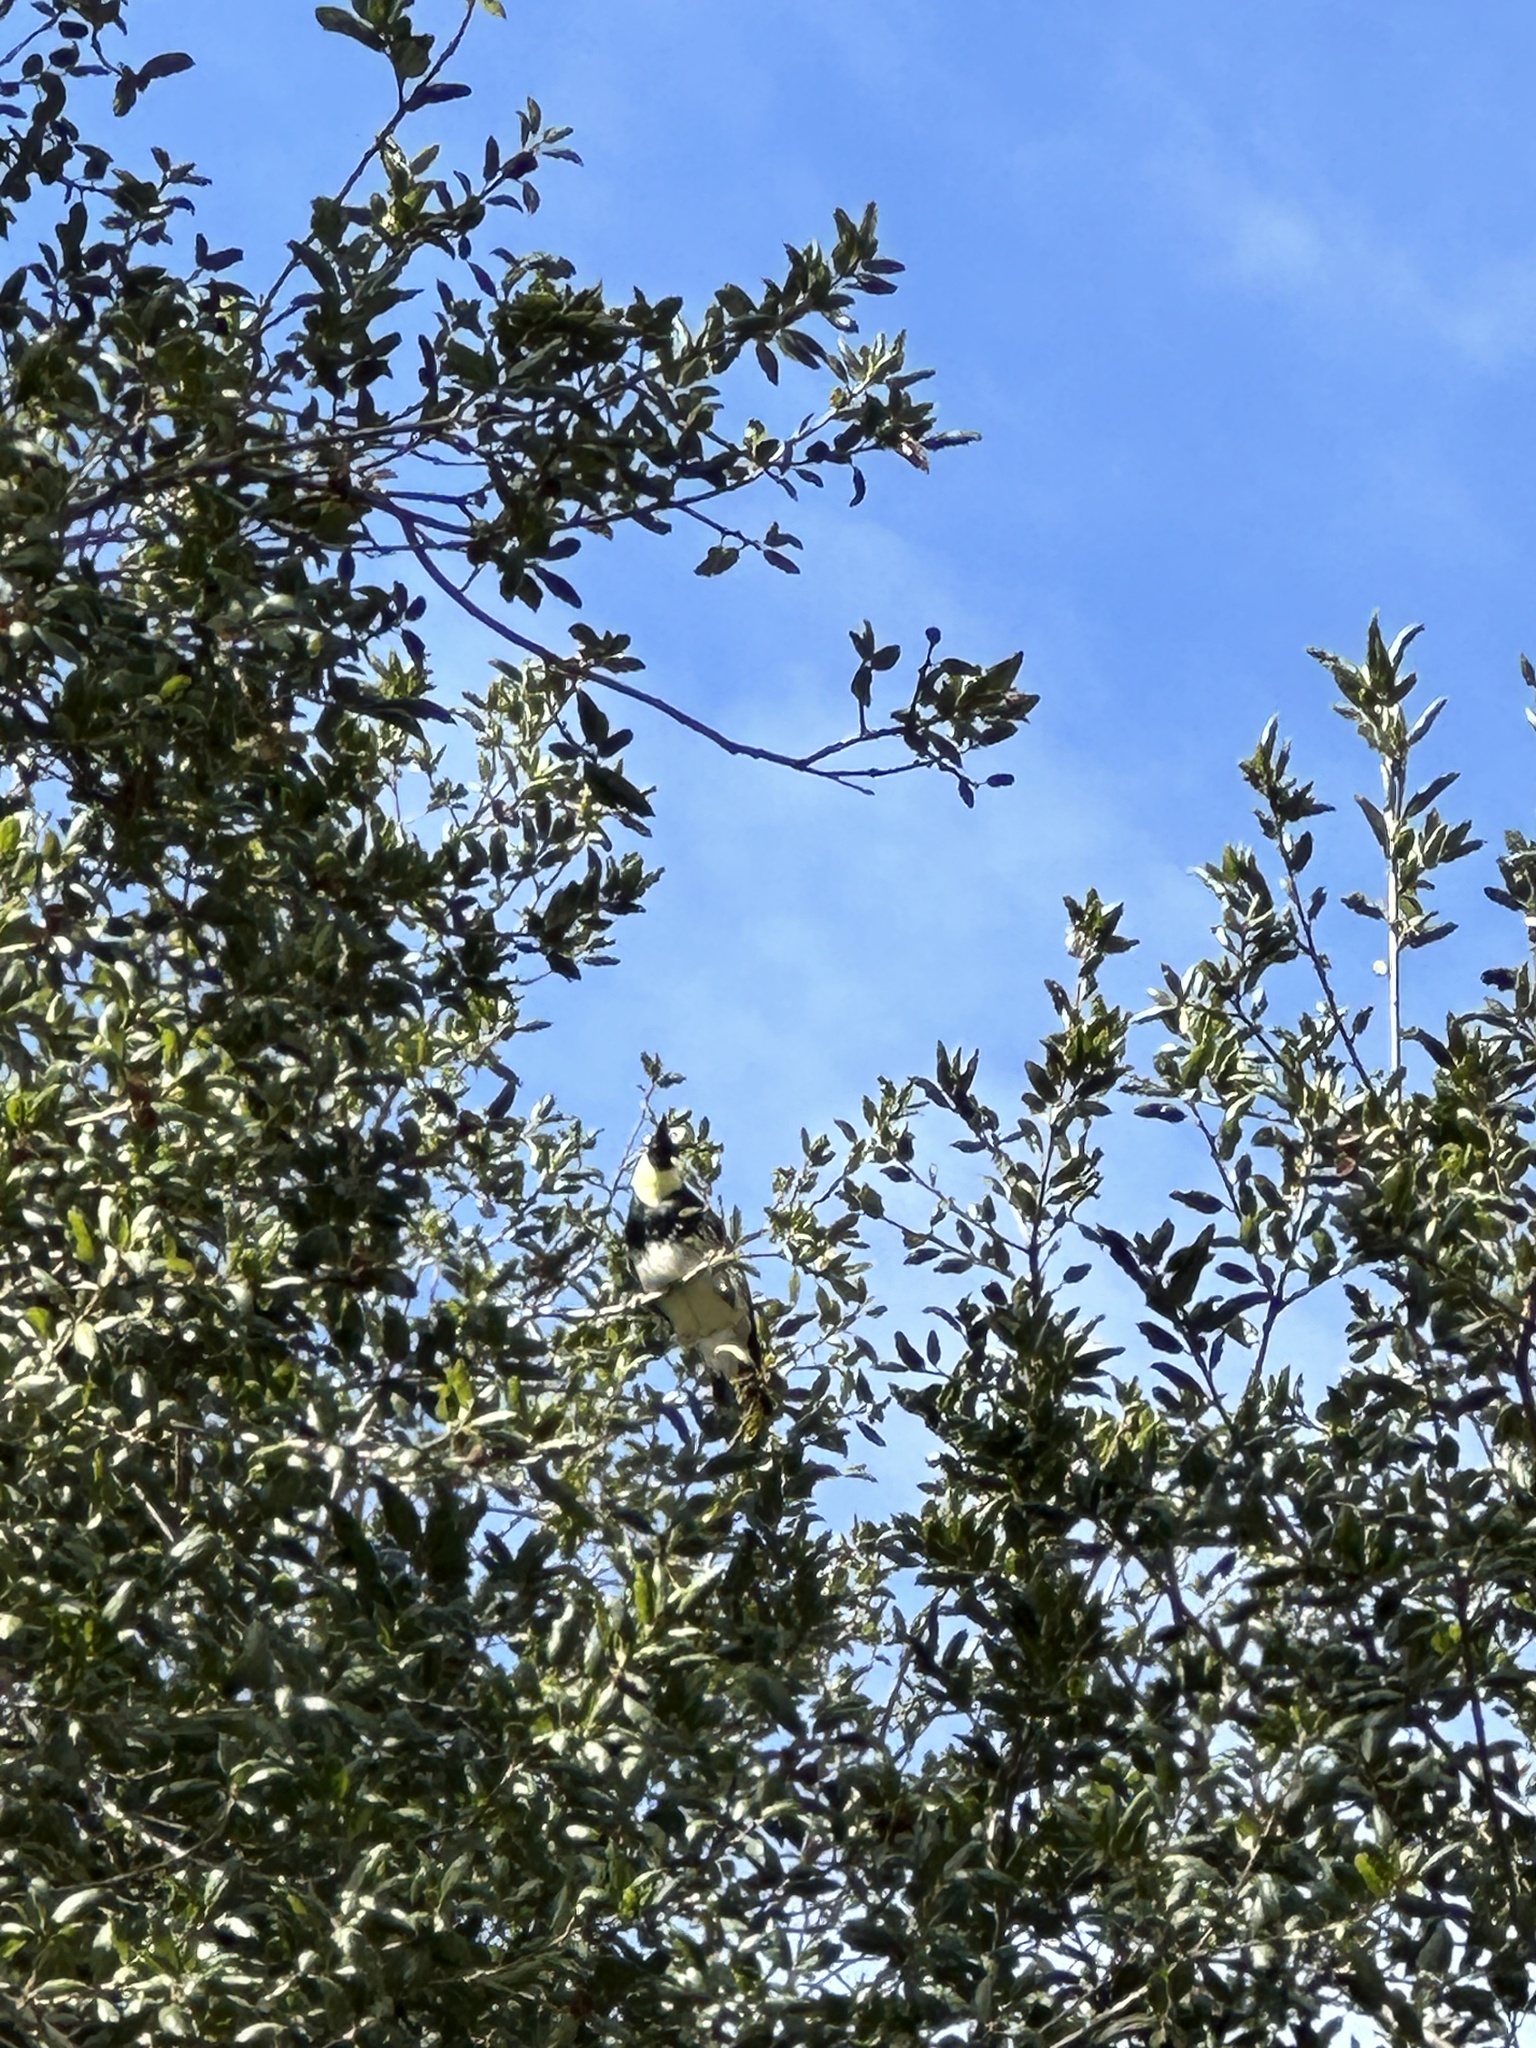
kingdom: Animalia
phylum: Chordata
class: Aves
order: Piciformes
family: Picidae
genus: Melanerpes
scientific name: Melanerpes formicivorus
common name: Acorn woodpecker
